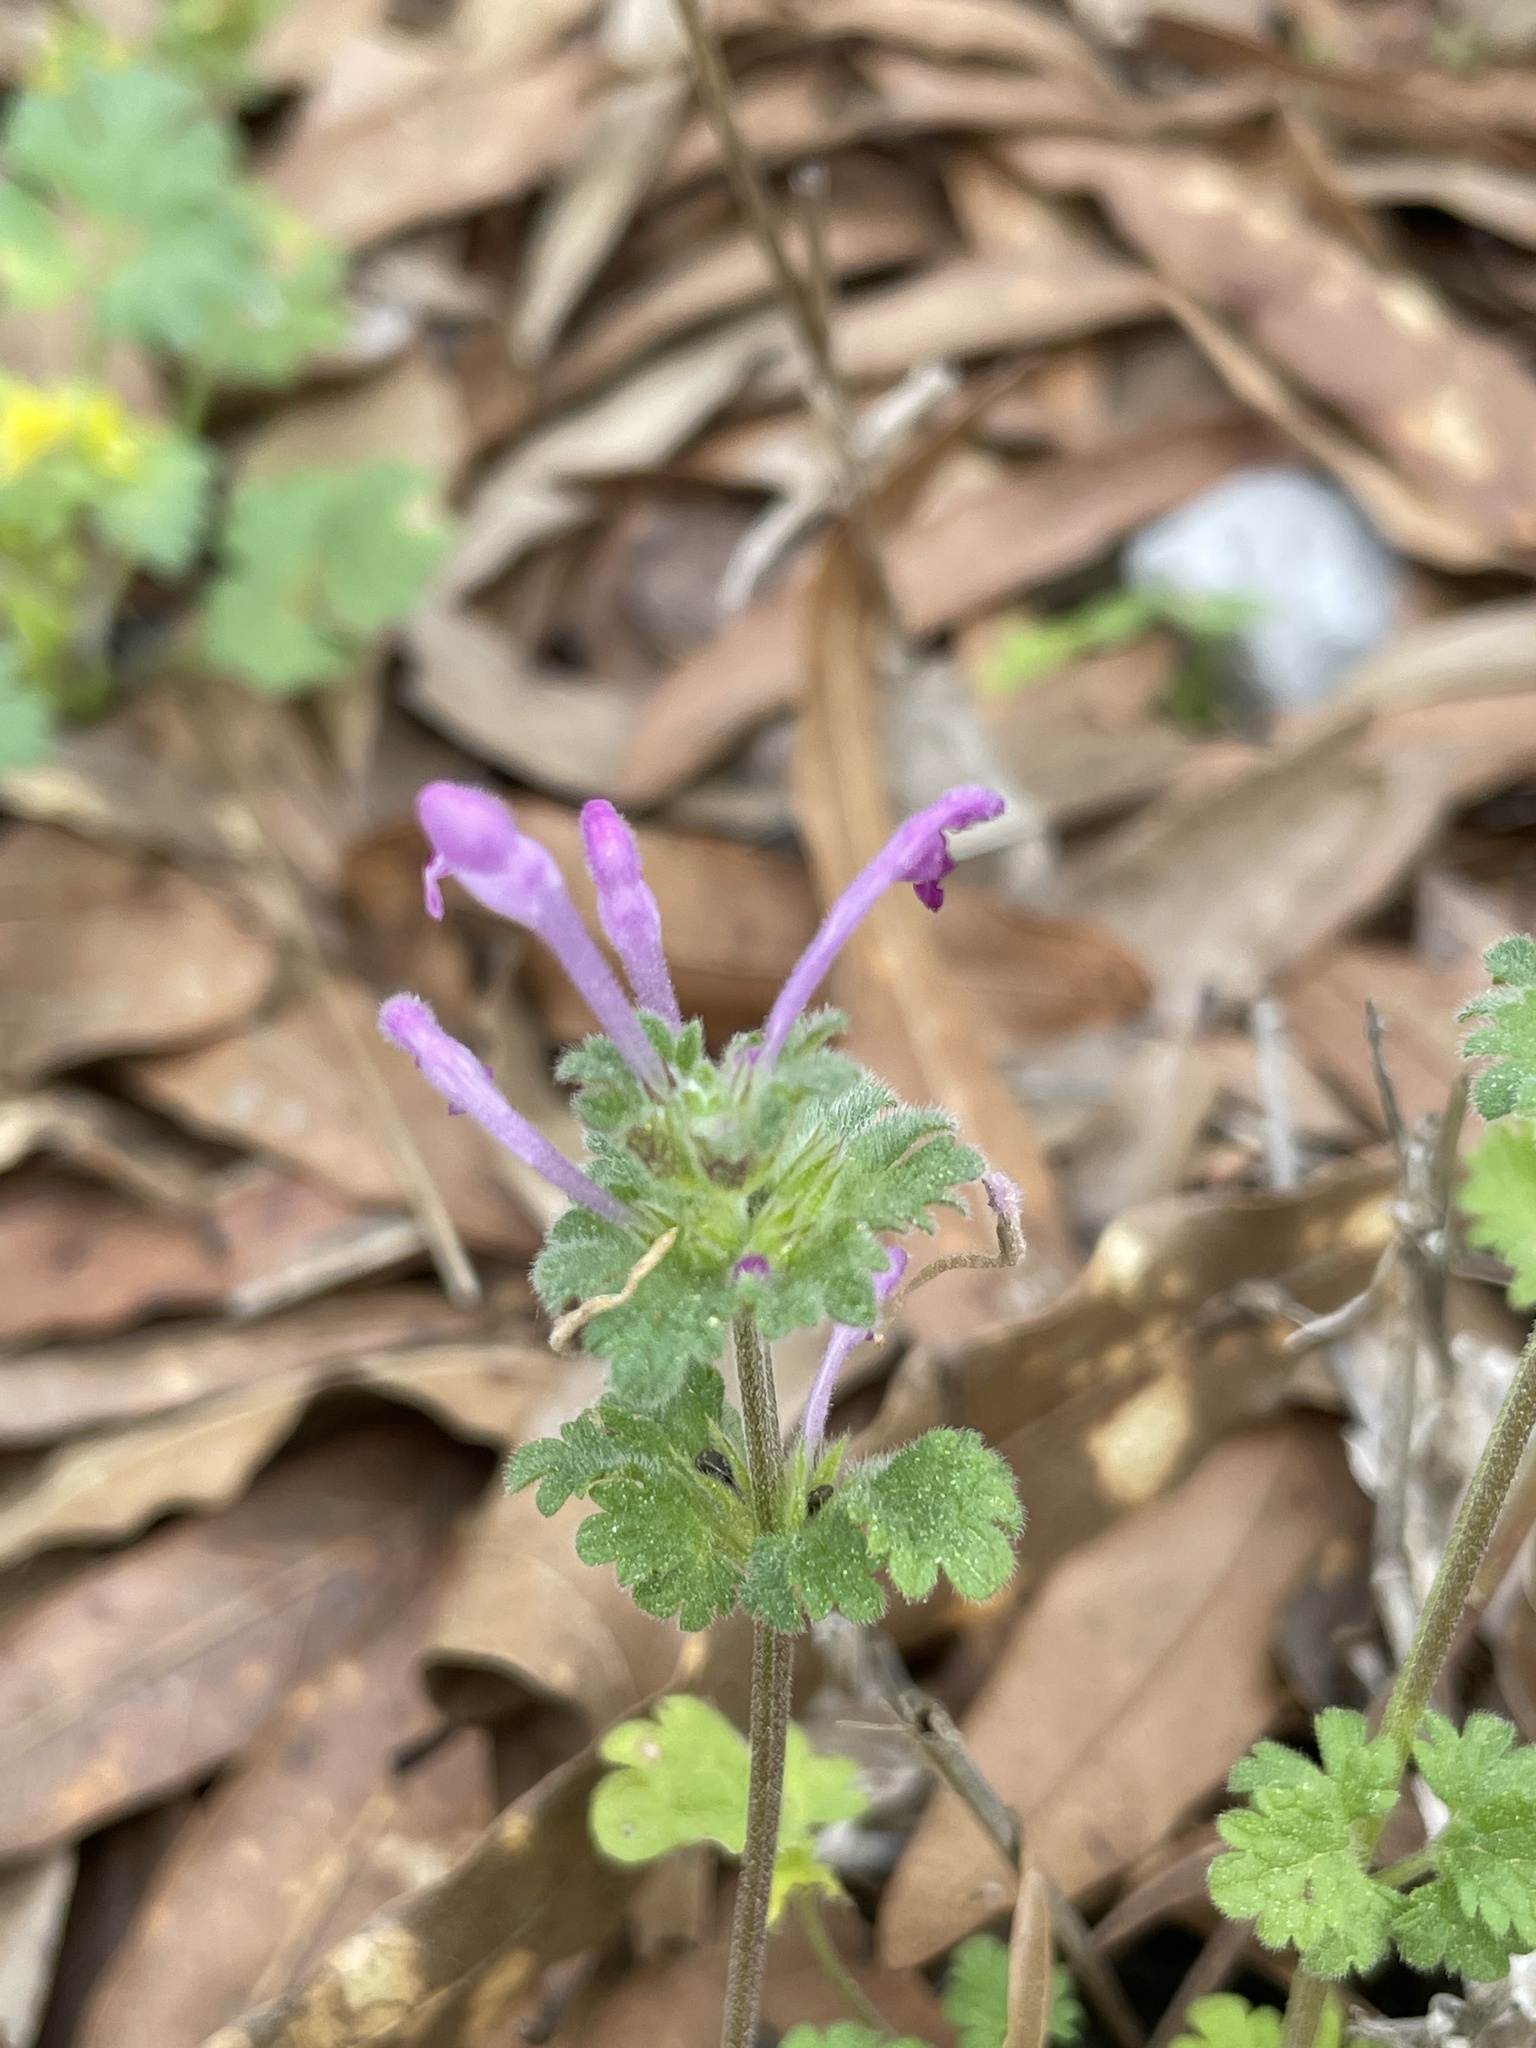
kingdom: Plantae
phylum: Tracheophyta
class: Magnoliopsida
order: Lamiales
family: Lamiaceae
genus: Lamium
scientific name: Lamium amplexicaule
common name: Henbit dead-nettle
